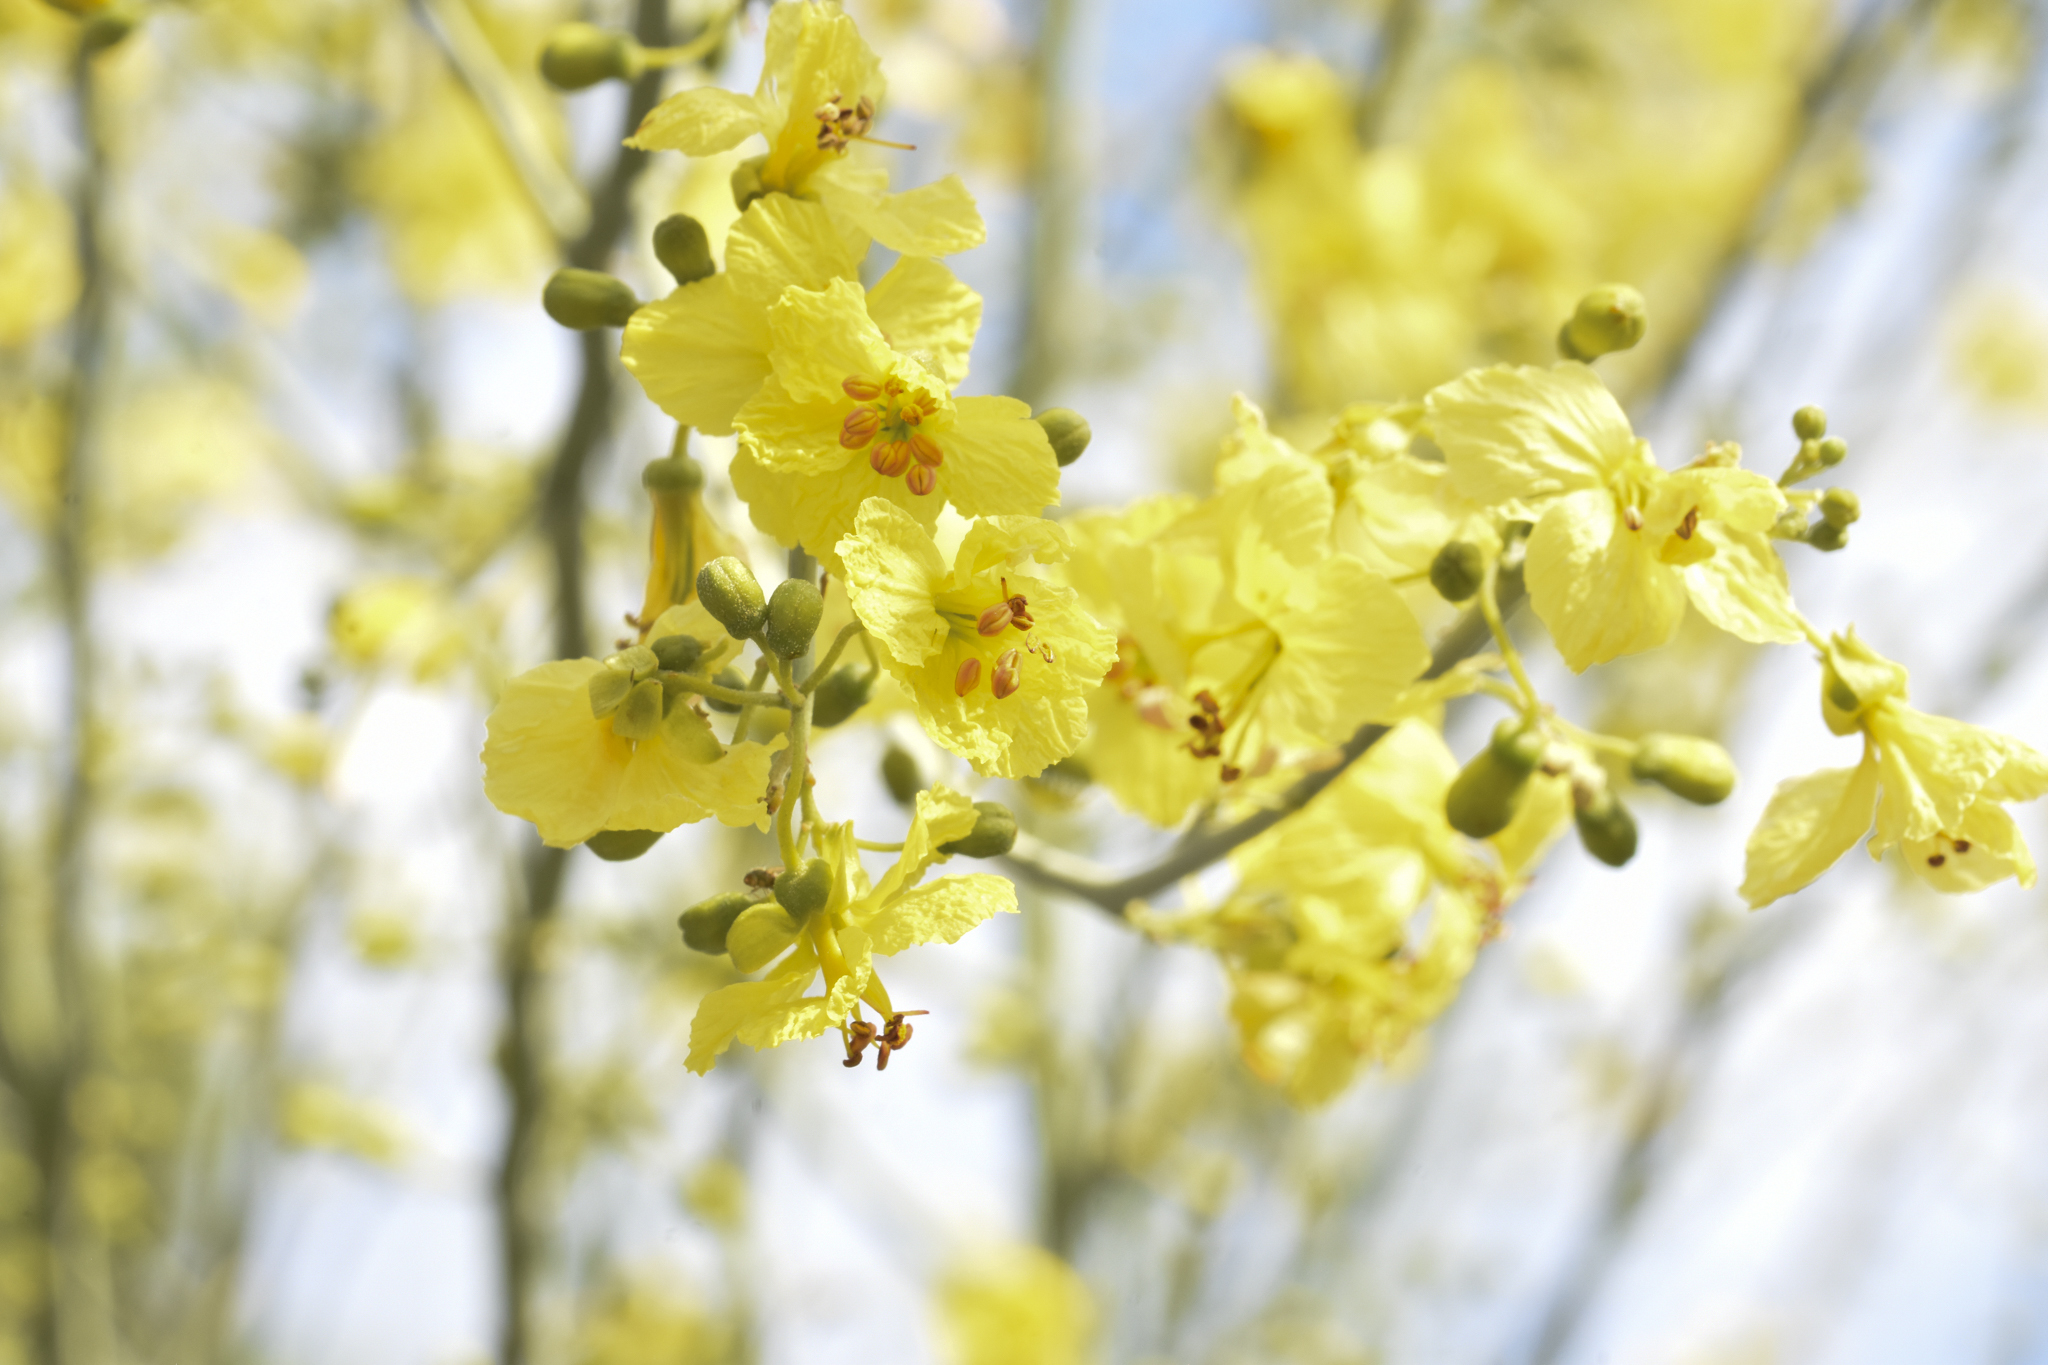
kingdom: Plantae
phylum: Tracheophyta
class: Magnoliopsida
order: Fabales
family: Fabaceae
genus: Parkinsonia
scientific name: Parkinsonia florida
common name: Blue paloverde
